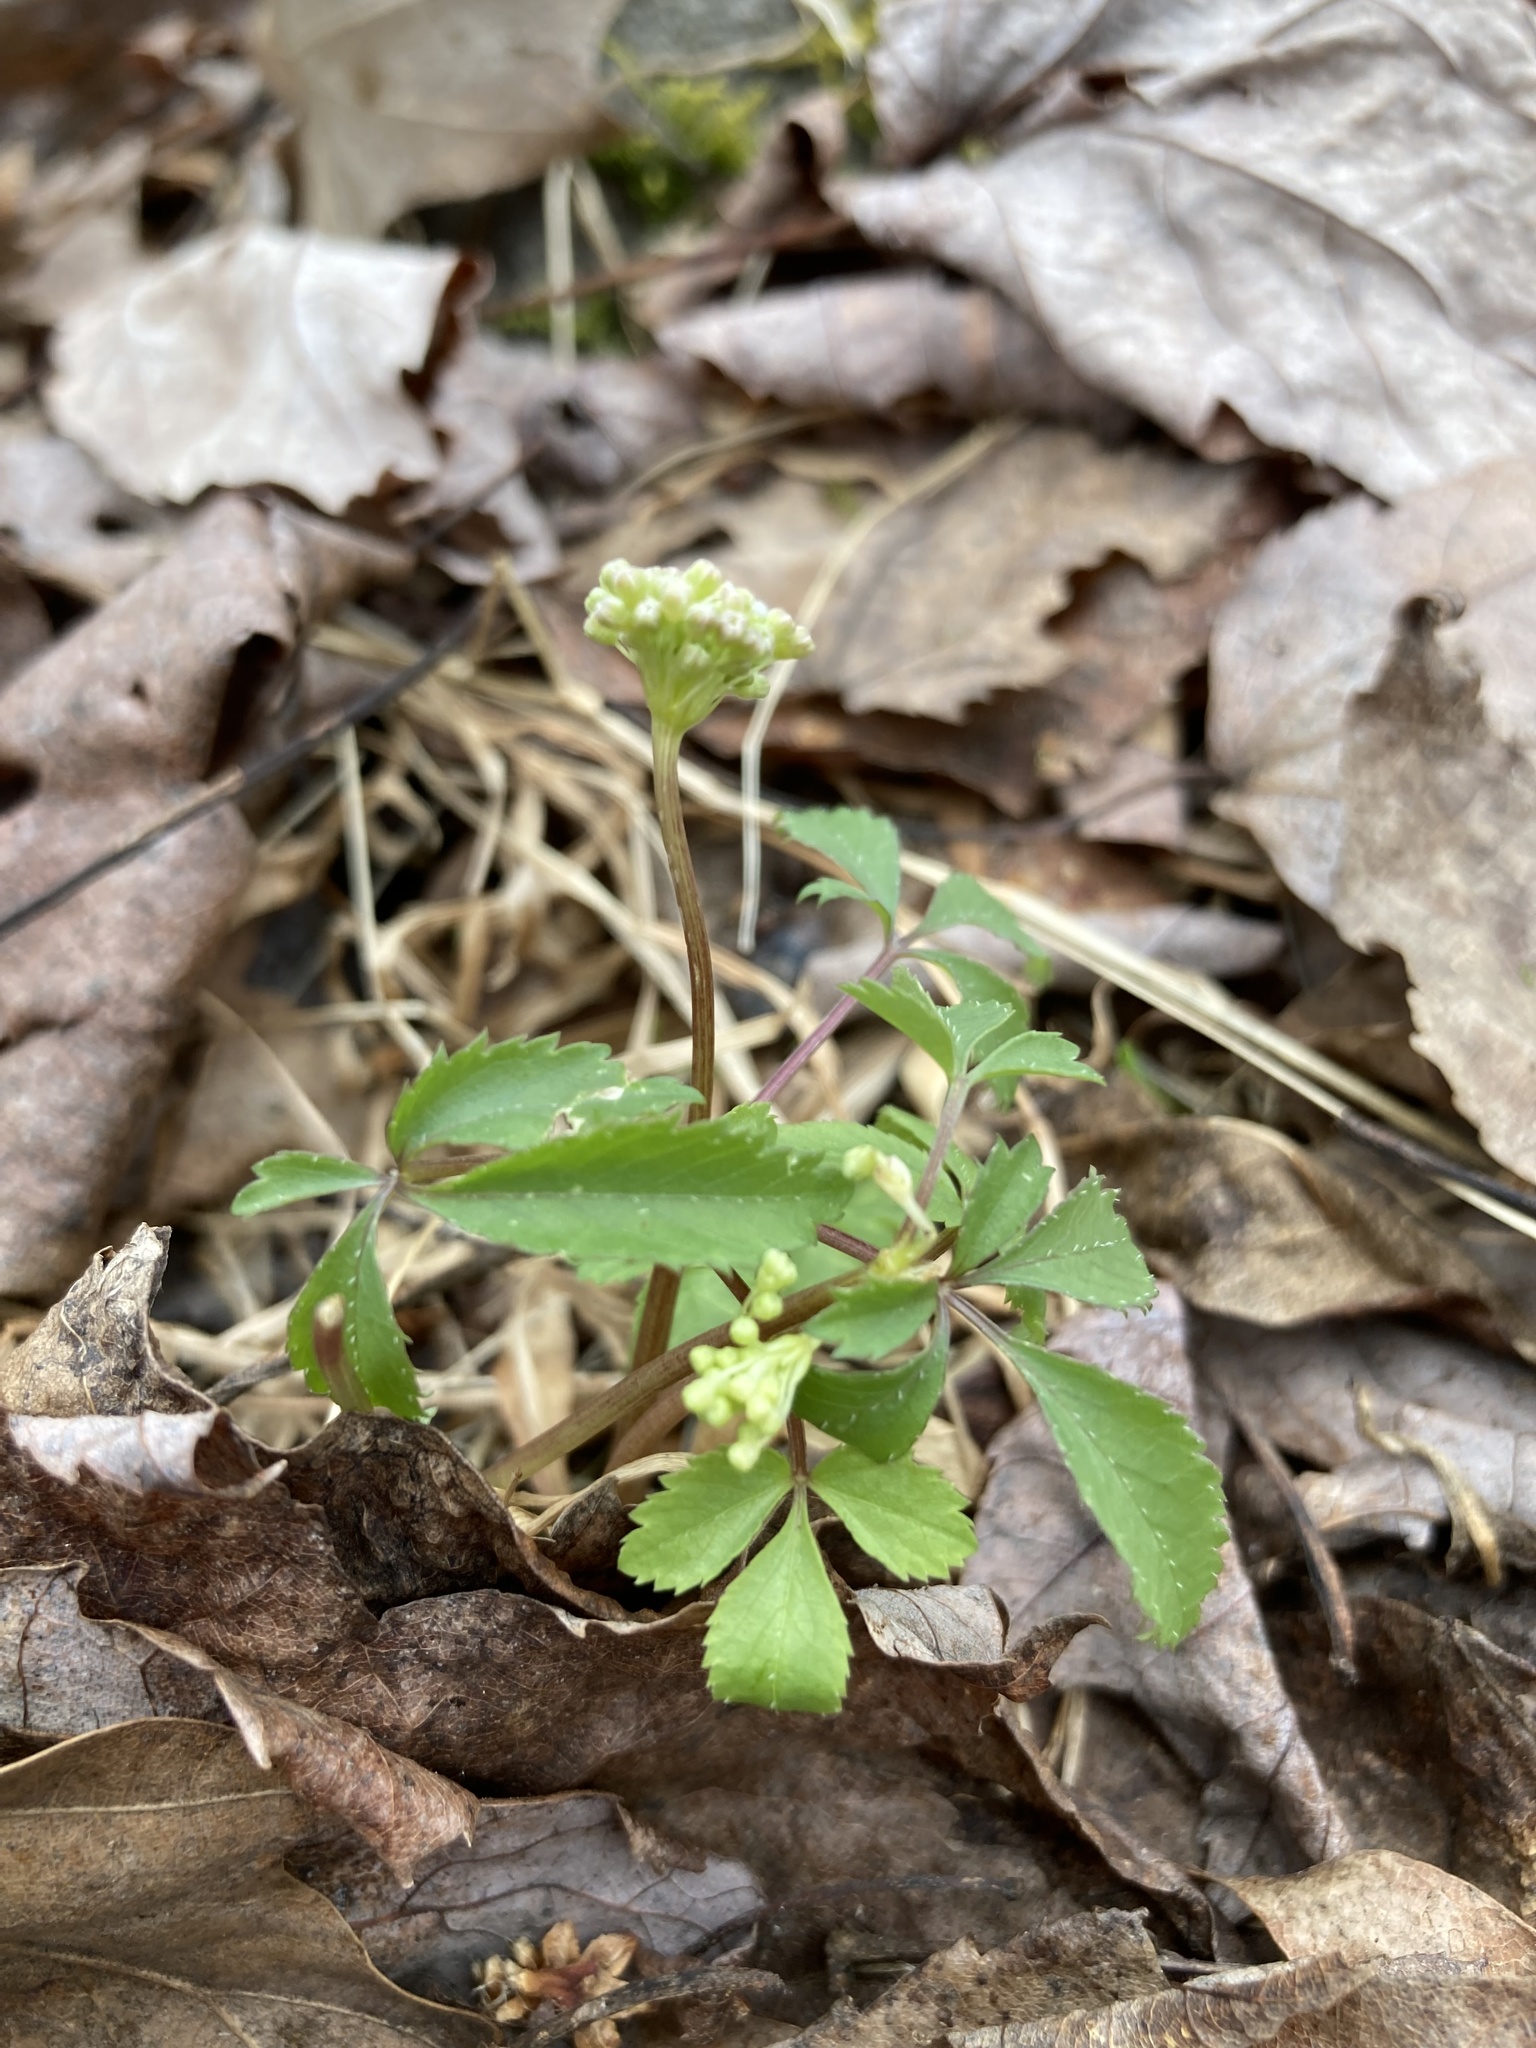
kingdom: Plantae
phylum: Tracheophyta
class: Magnoliopsida
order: Apiales
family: Araliaceae
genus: Panax
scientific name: Panax trifolius
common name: Dwarf ginseng
